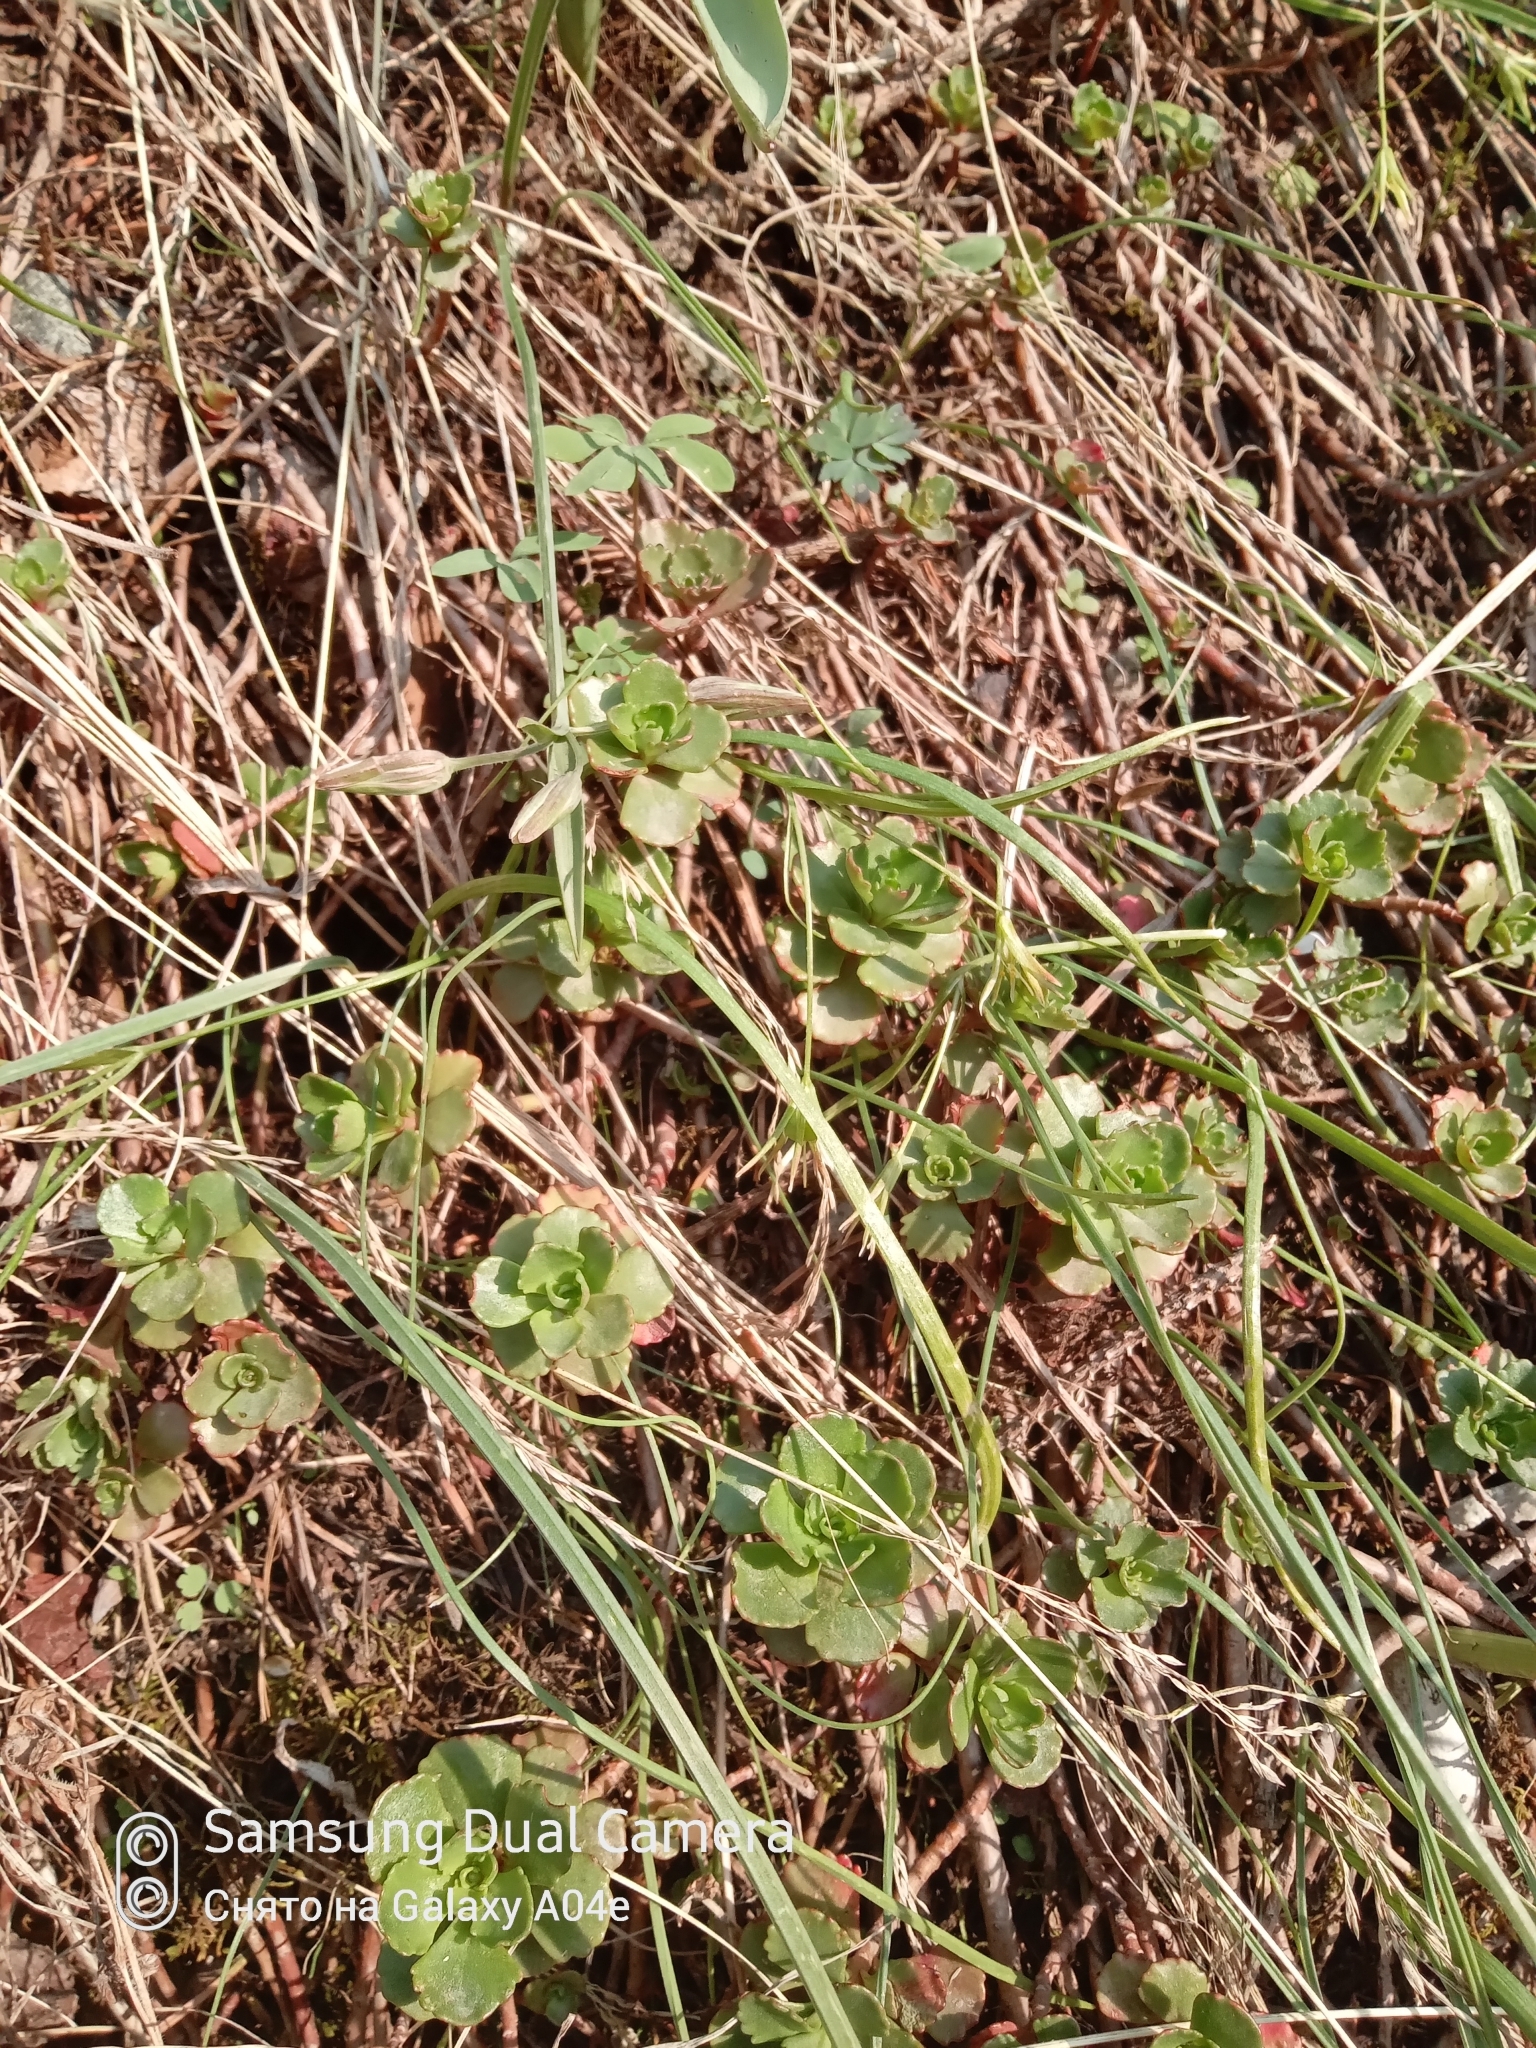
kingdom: Plantae
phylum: Tracheophyta
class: Magnoliopsida
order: Saxifragales
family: Crassulaceae
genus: Phedimus
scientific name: Phedimus hybridus
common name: Hybrid stonecrop
